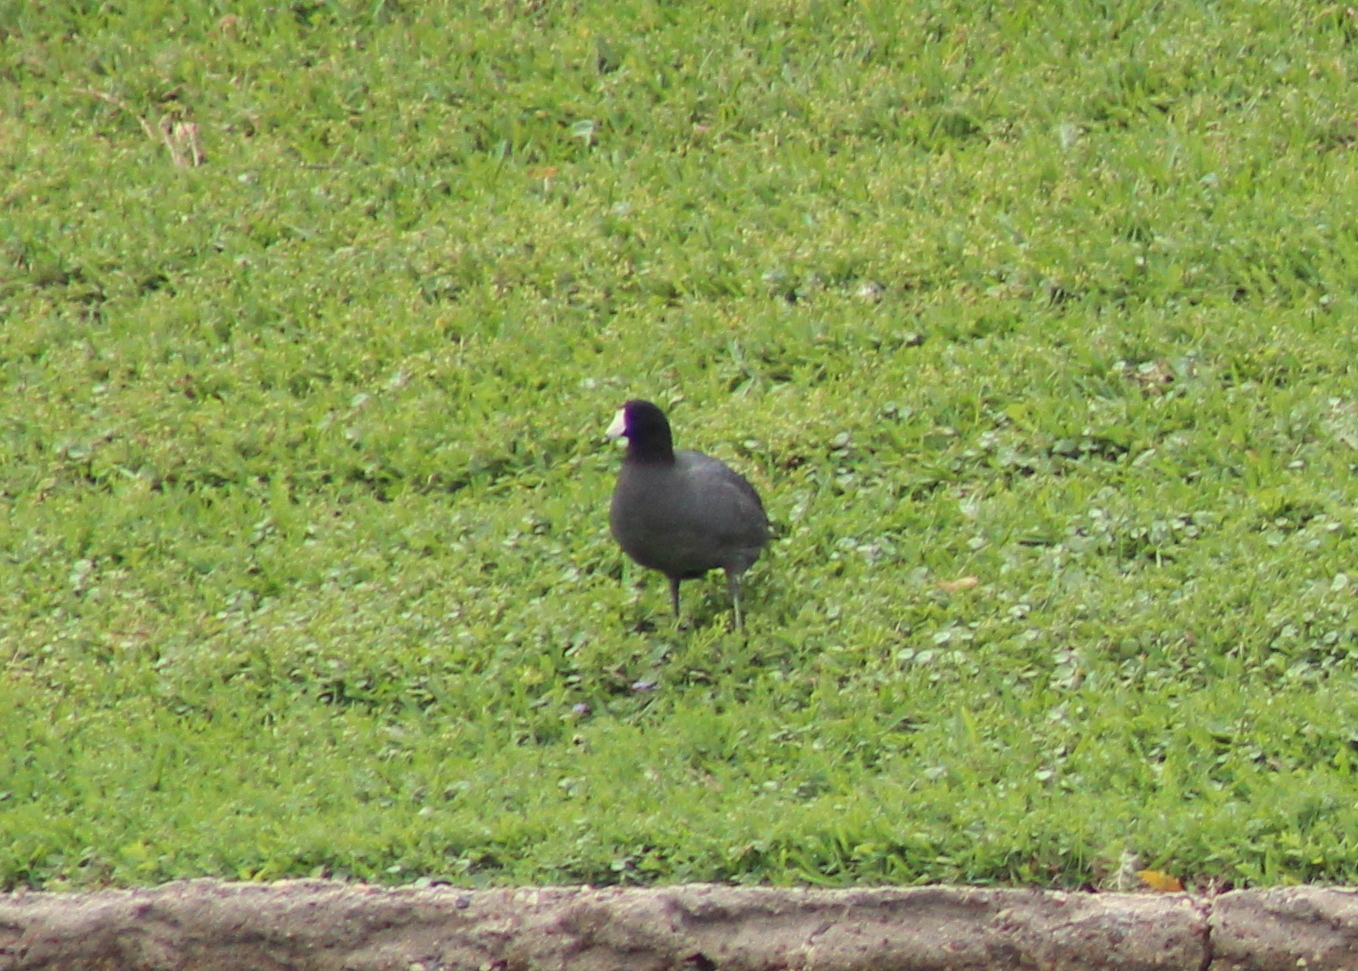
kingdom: Animalia
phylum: Chordata
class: Aves
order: Gruiformes
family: Rallidae
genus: Fulica
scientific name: Fulica americana
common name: American coot
